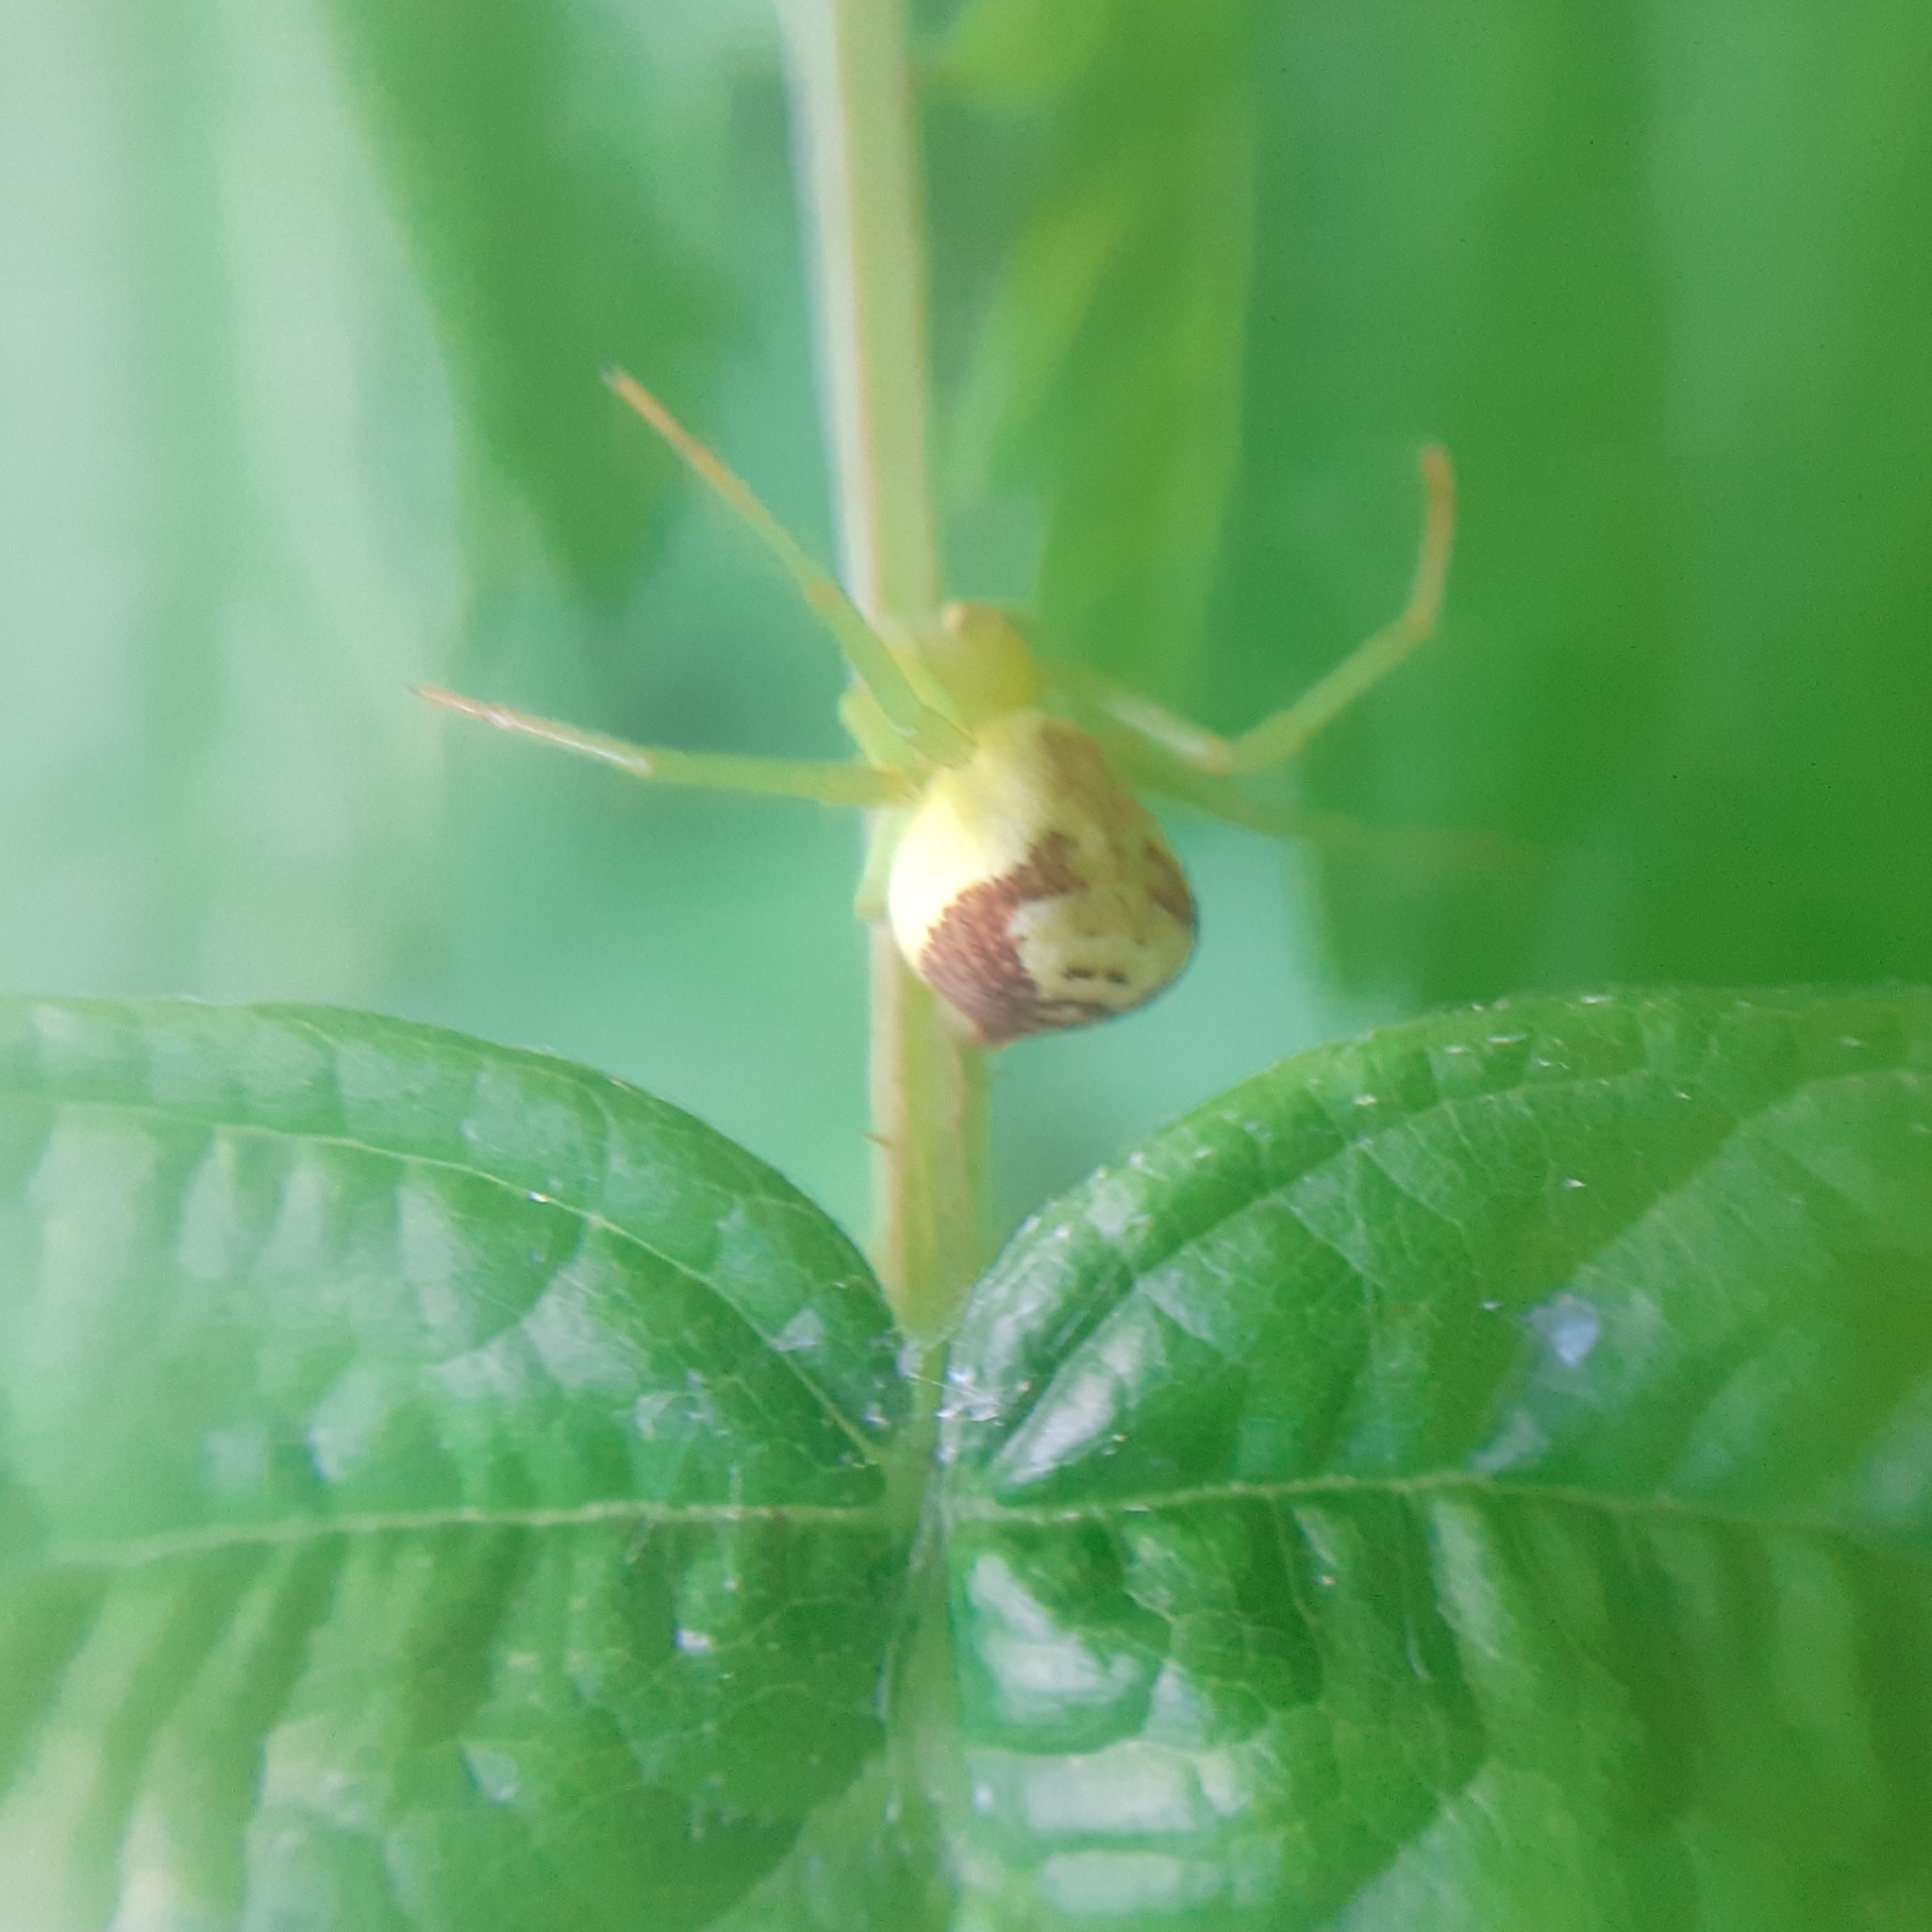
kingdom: Animalia
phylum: Arthropoda
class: Arachnida
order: Araneae
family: Thomisidae
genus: Ebrechtella
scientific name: Ebrechtella tricuspidata
